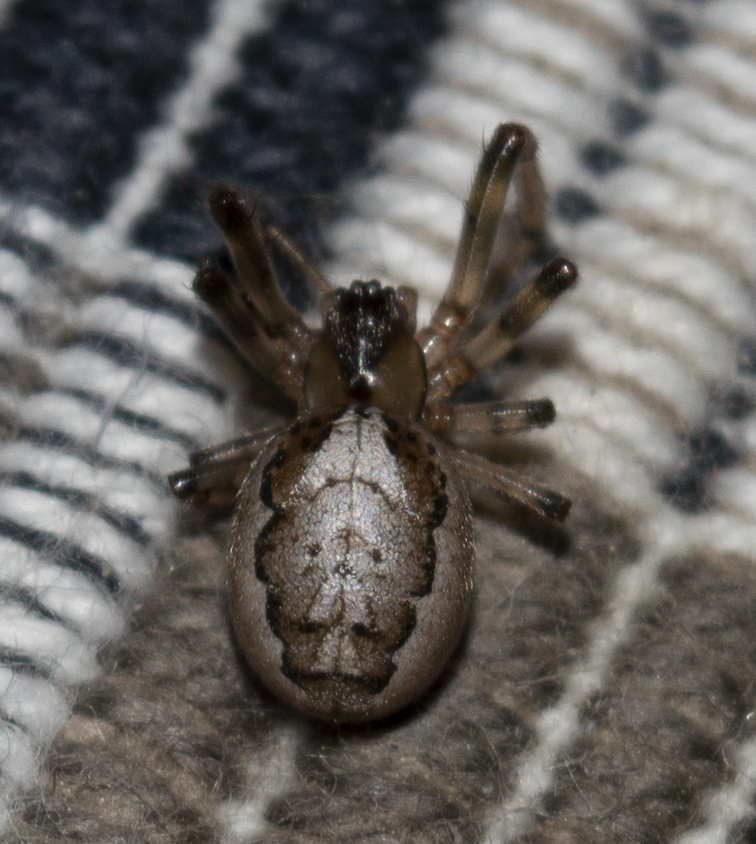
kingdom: Animalia
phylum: Arthropoda
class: Arachnida
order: Araneae
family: Araneidae
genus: Zygiella
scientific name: Zygiella x-notata
